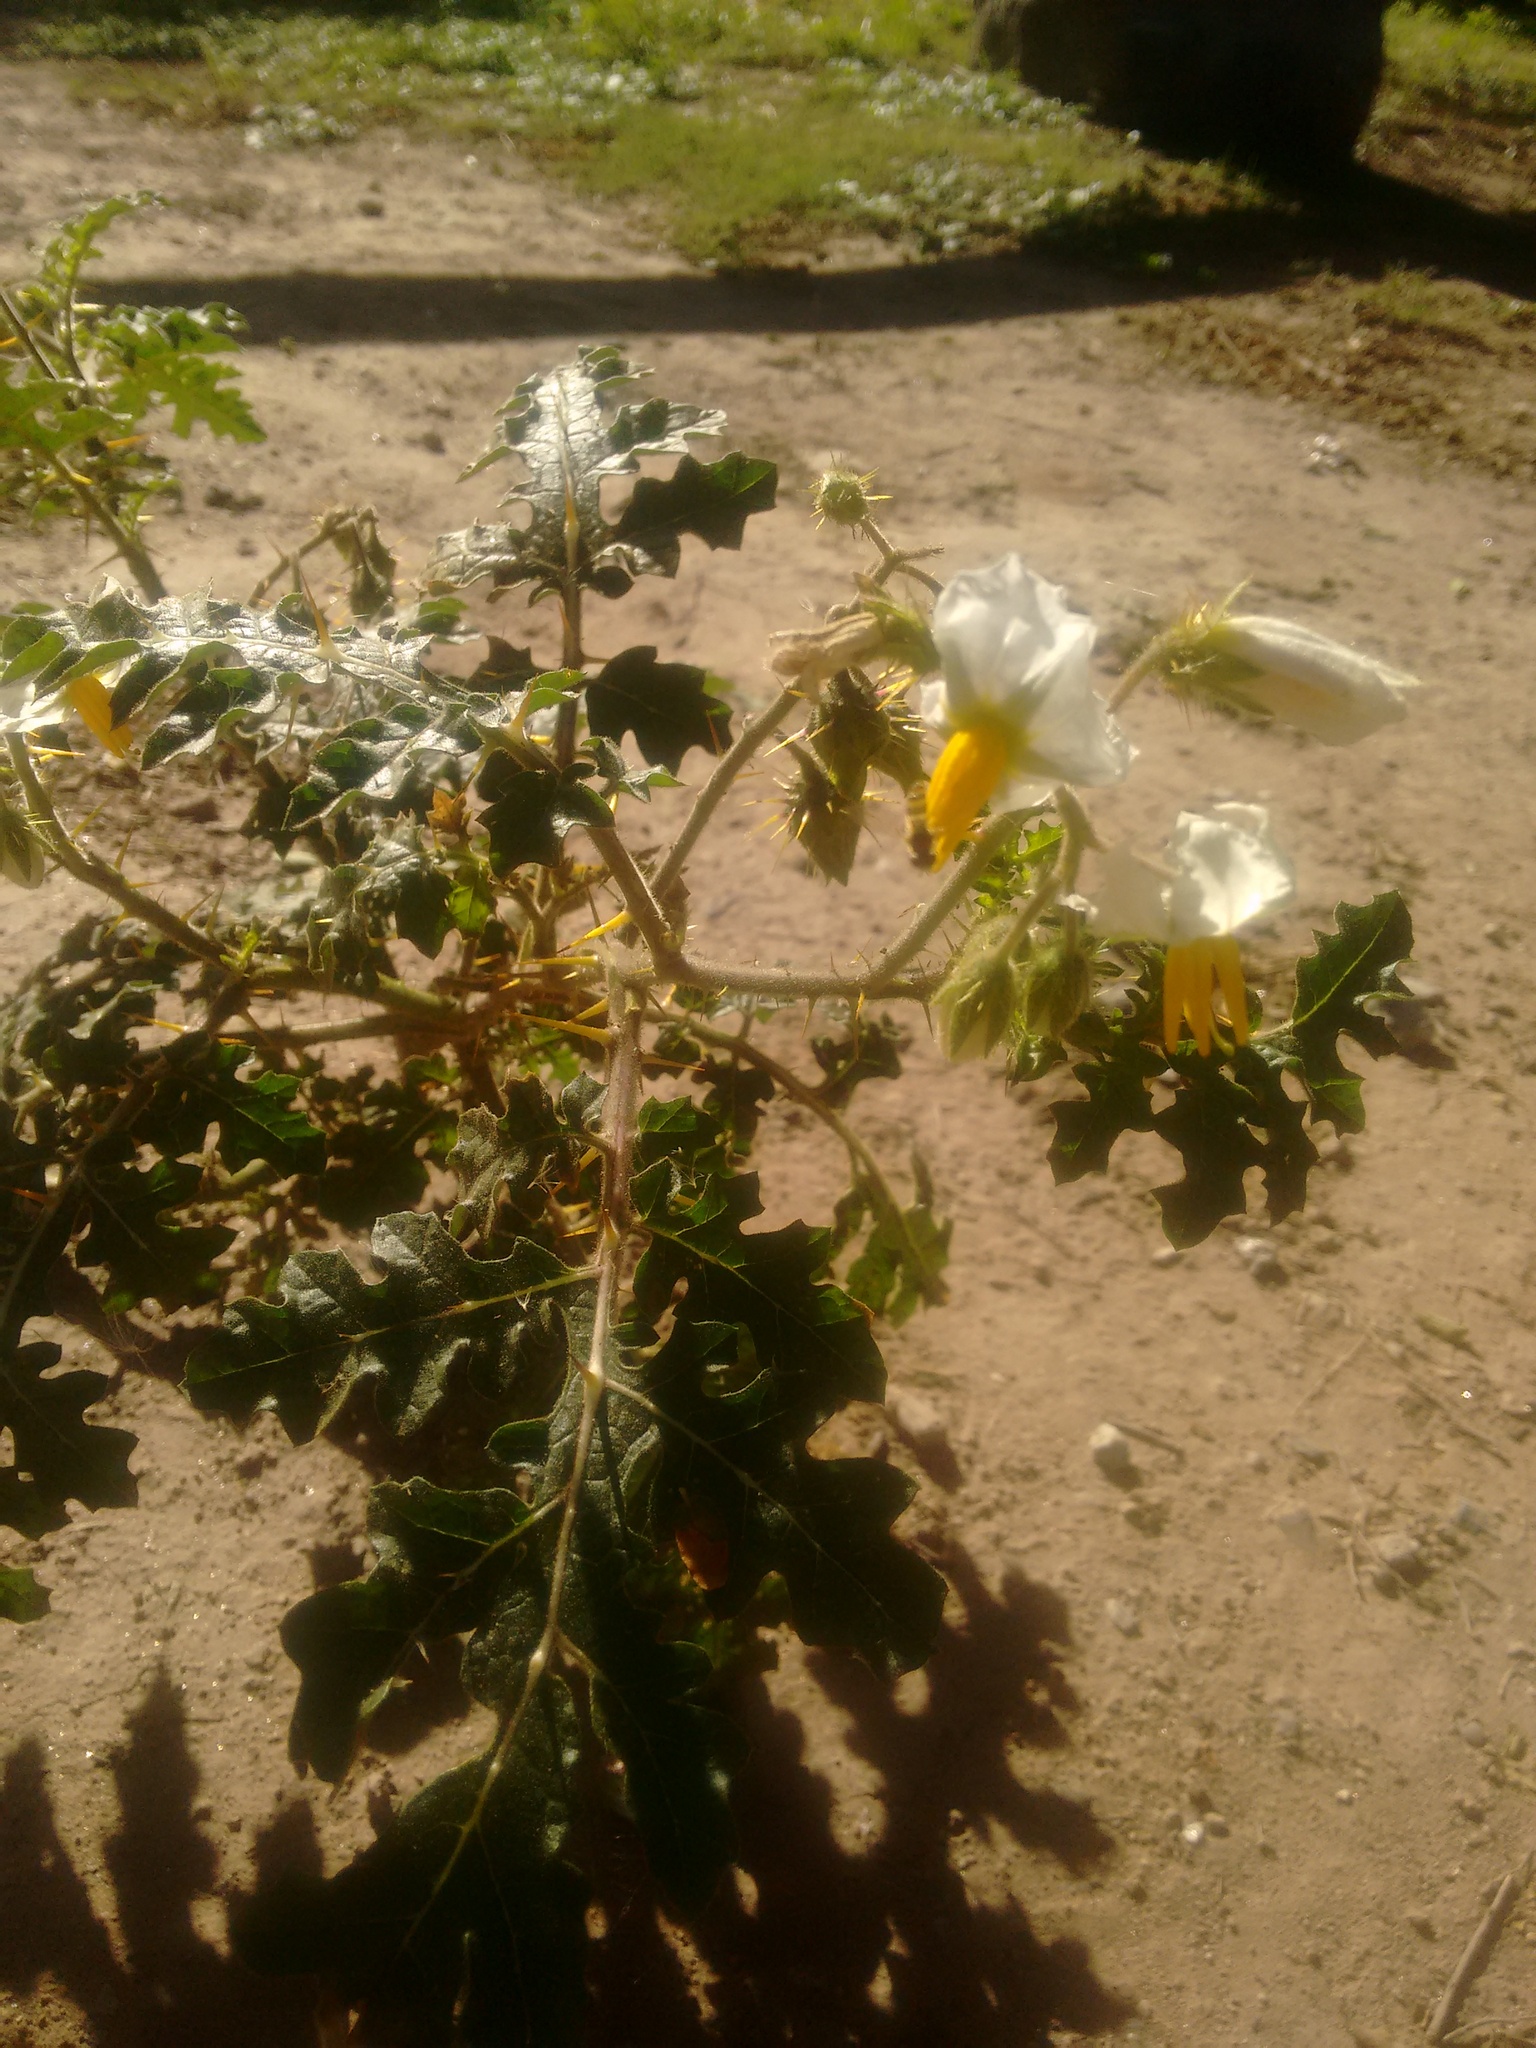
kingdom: Plantae
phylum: Tracheophyta
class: Magnoliopsida
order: Solanales
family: Solanaceae
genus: Solanum
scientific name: Solanum sisymbriifolium
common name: Red buffalo-bur
